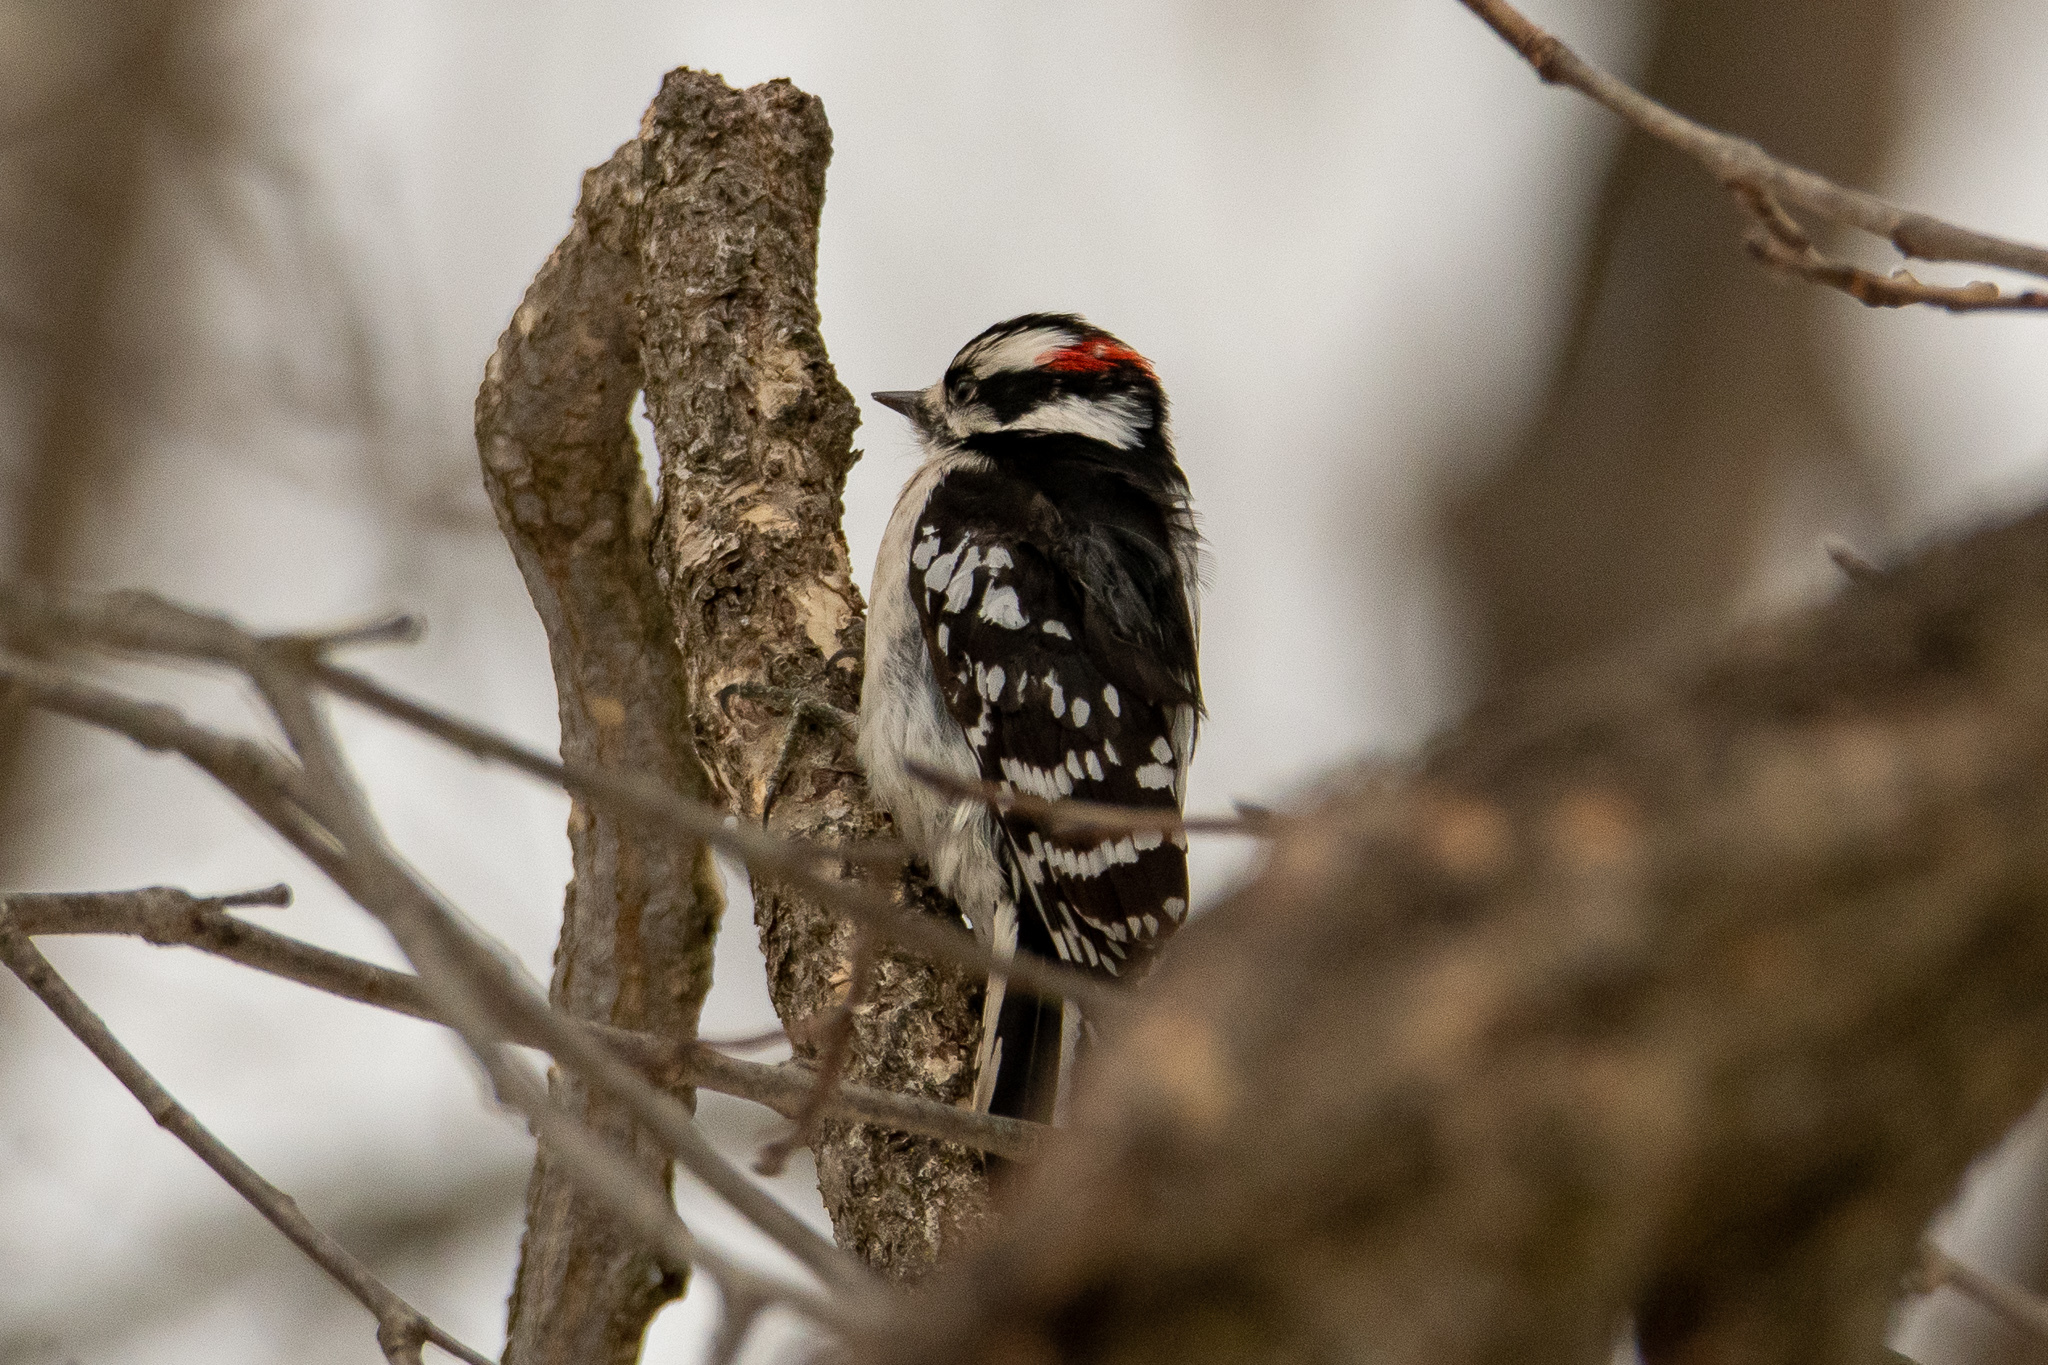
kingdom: Animalia
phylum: Chordata
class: Aves
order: Piciformes
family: Picidae
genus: Dryobates
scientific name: Dryobates pubescens
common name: Downy woodpecker
